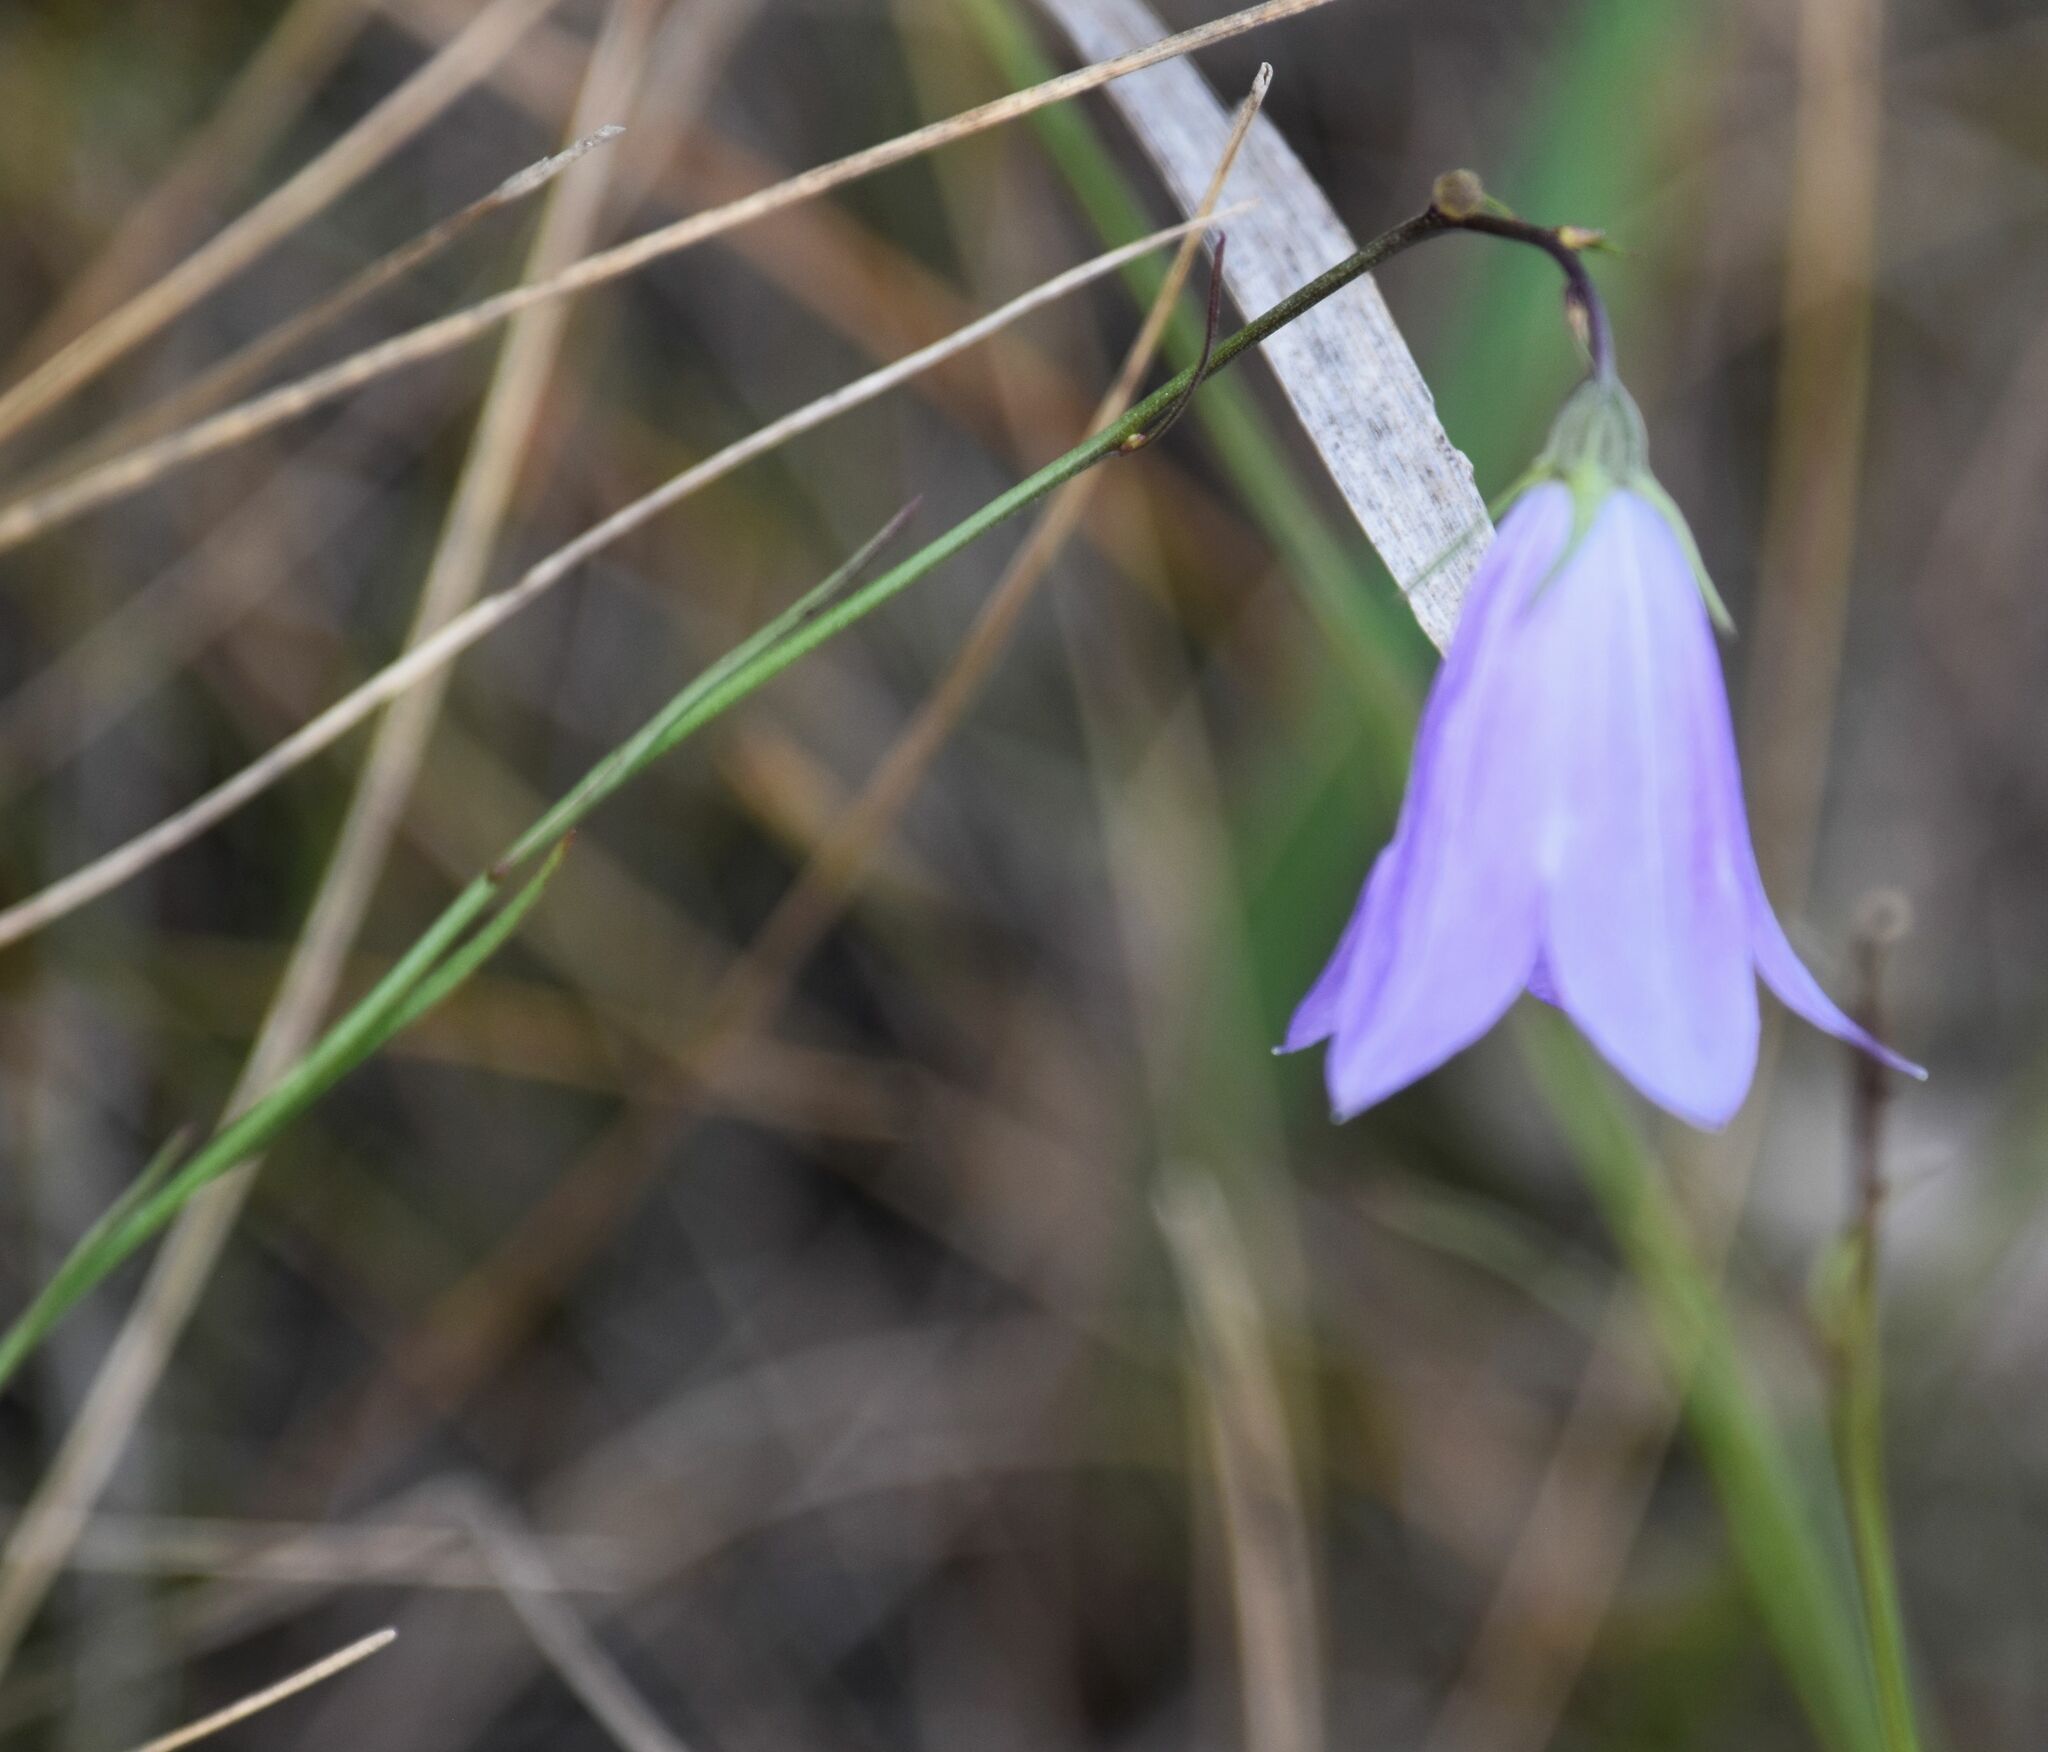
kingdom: Plantae
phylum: Tracheophyta
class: Magnoliopsida
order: Asterales
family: Campanulaceae
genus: Campanula
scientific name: Campanula alaskana
